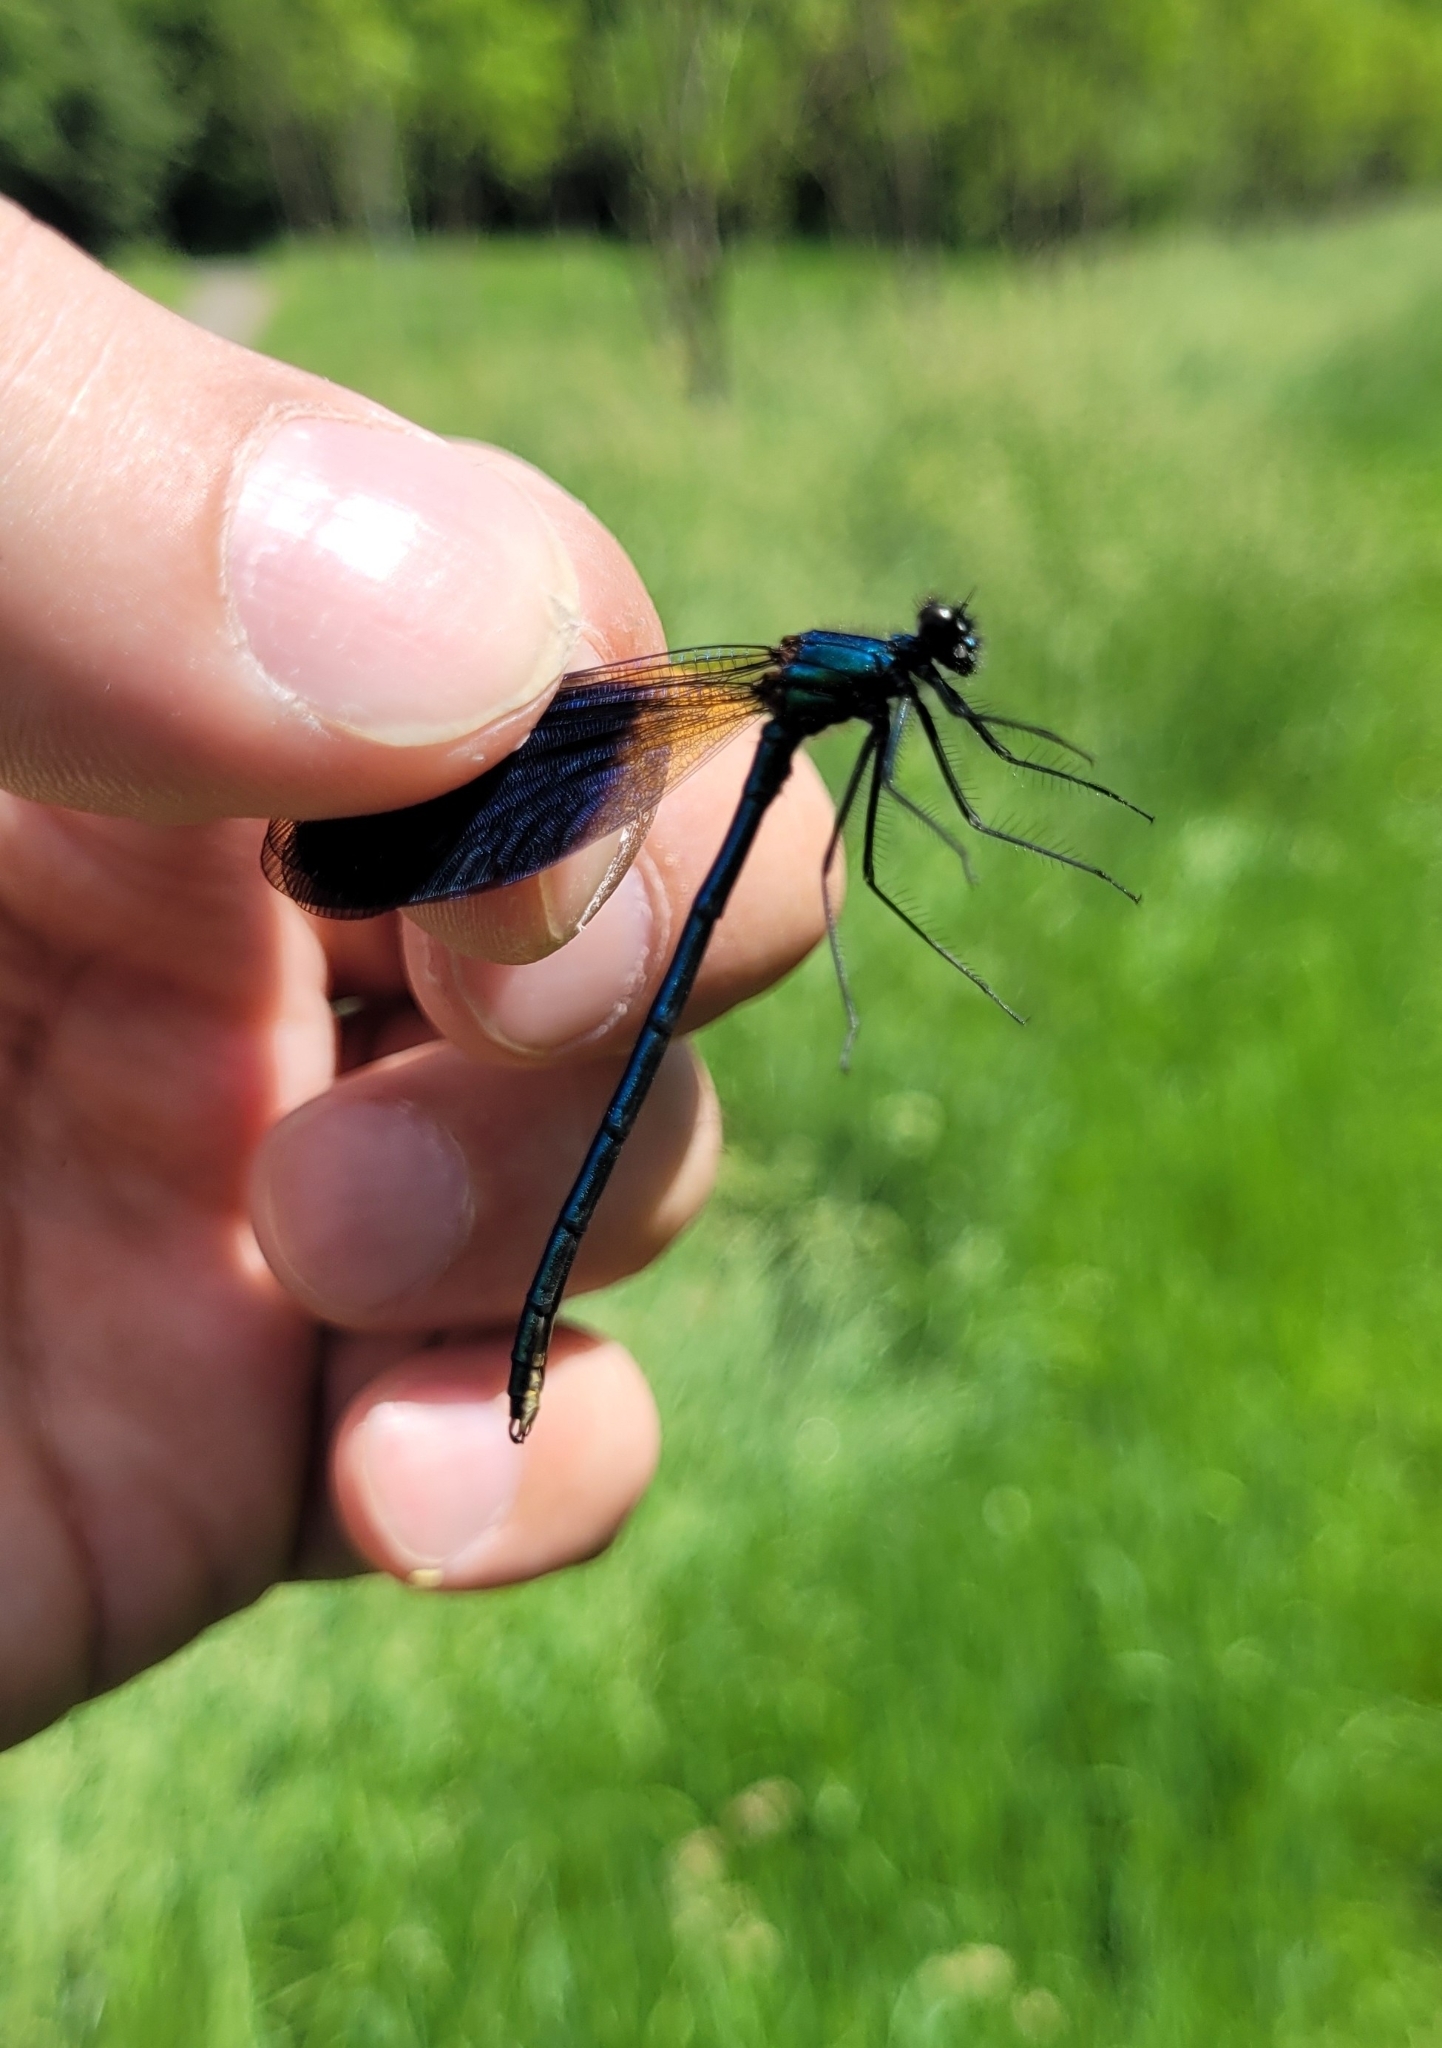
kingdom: Animalia
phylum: Arthropoda
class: Insecta
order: Odonata
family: Calopterygidae
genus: Calopteryx
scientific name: Calopteryx splendens
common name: Banded demoiselle
